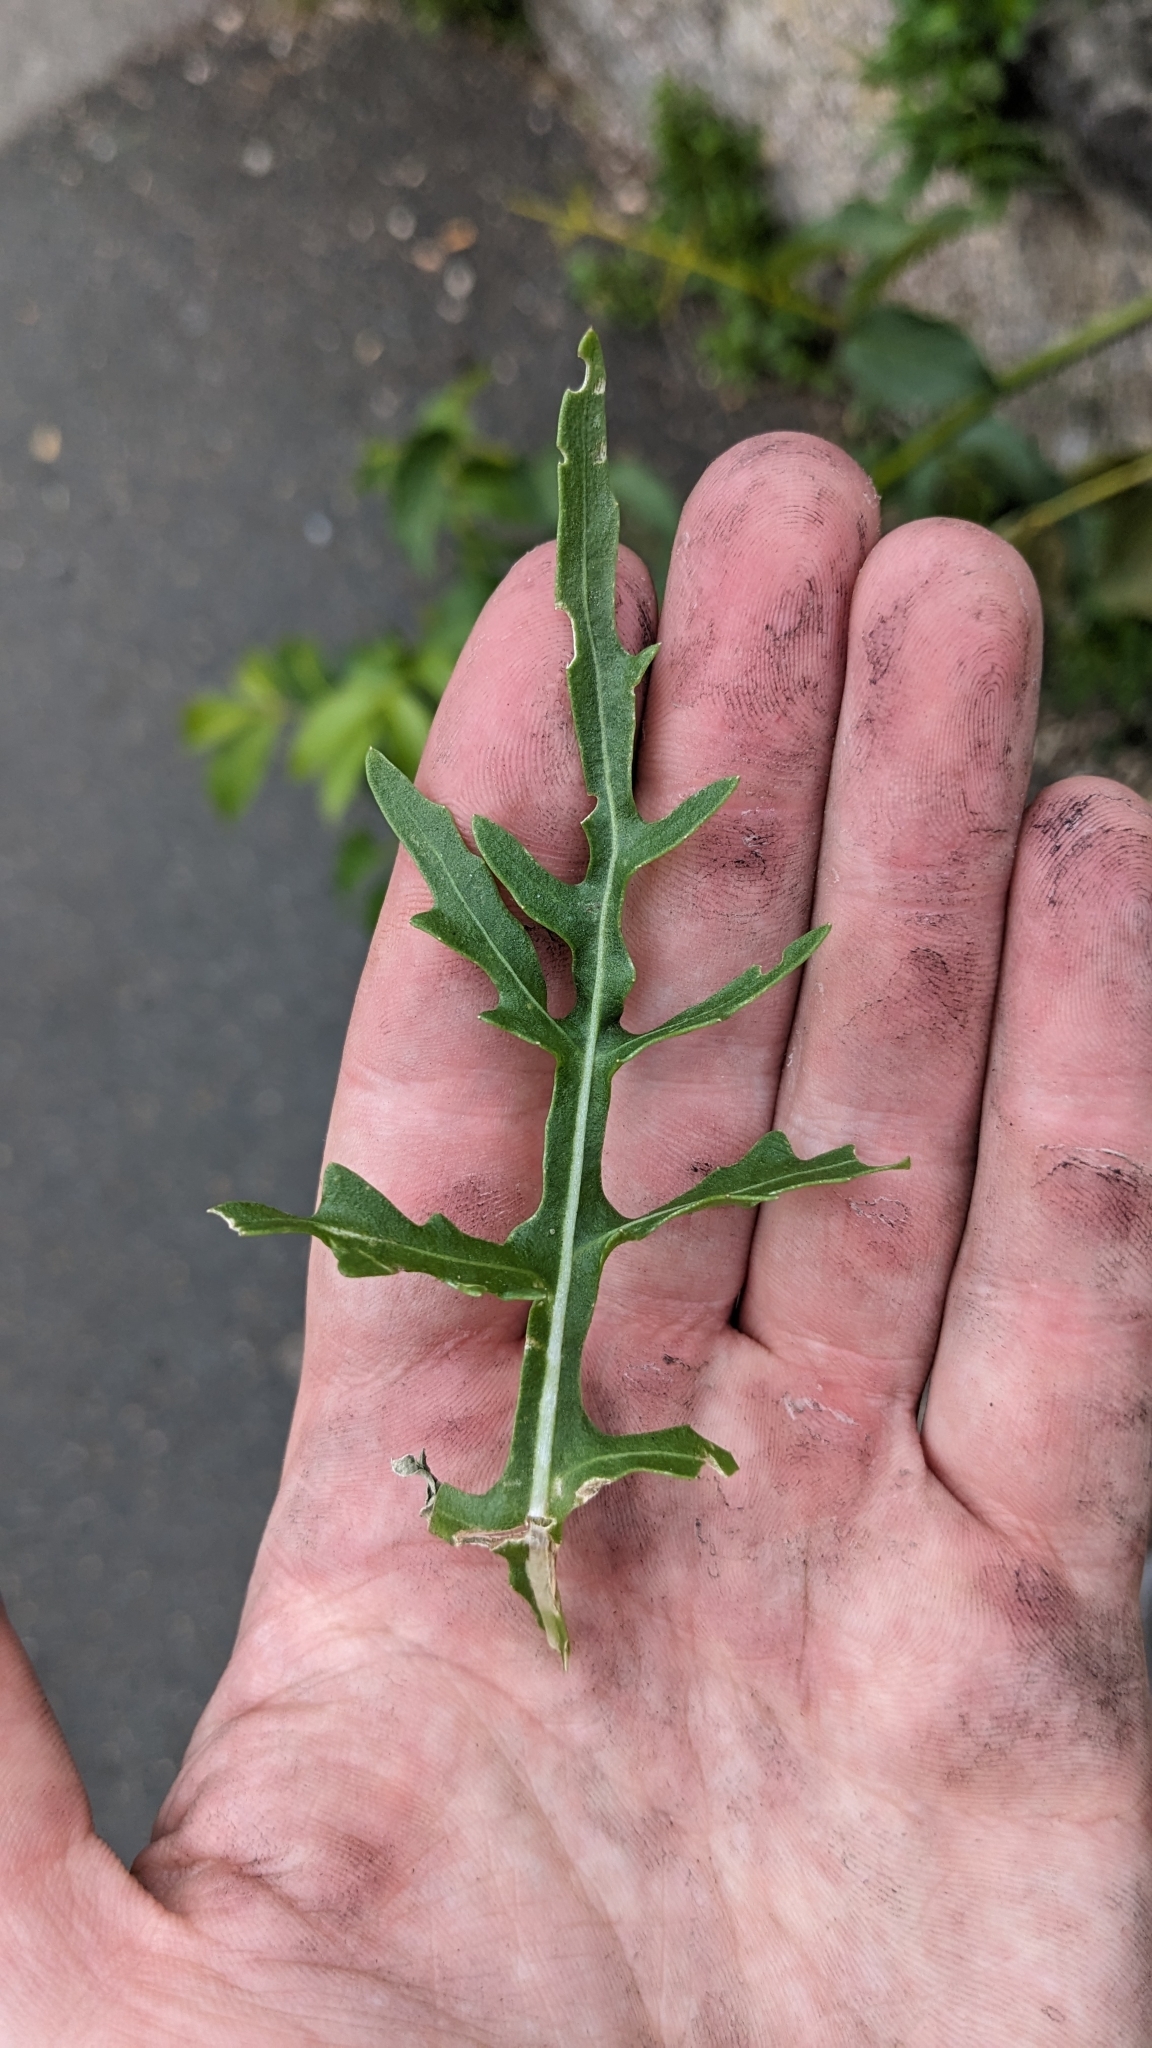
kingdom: Plantae
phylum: Tracheophyta
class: Magnoliopsida
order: Brassicales
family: Brassicaceae
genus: Diplotaxis
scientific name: Diplotaxis tenuifolia
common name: Perennial wall-rocket
